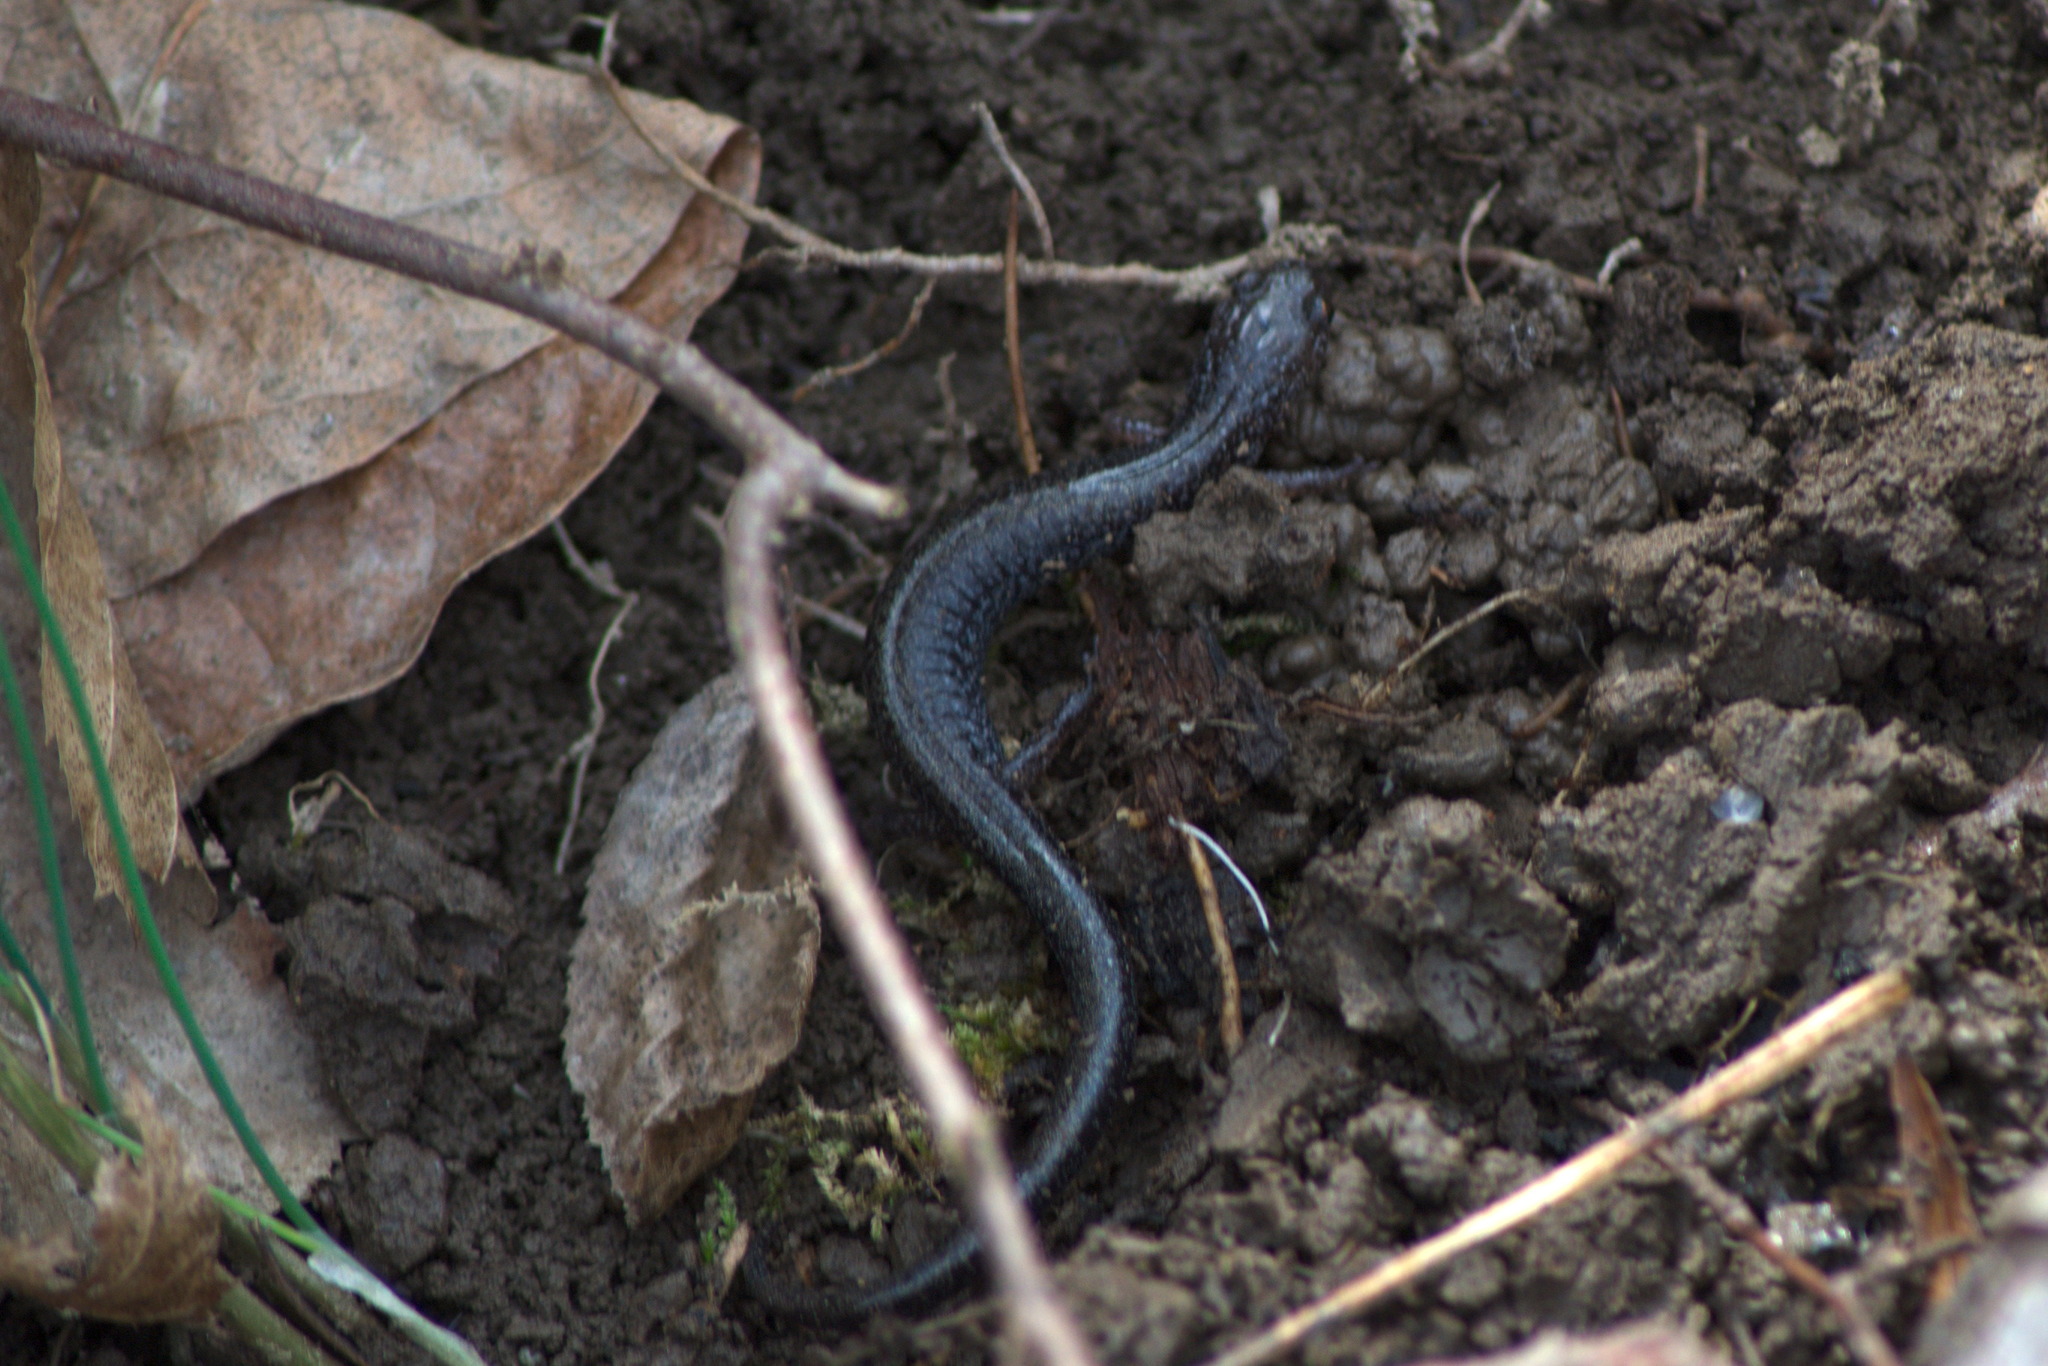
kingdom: Animalia
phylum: Chordata
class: Amphibia
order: Caudata
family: Plethodontidae
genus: Plethodon
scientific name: Plethodon cinereus
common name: Redback salamander
